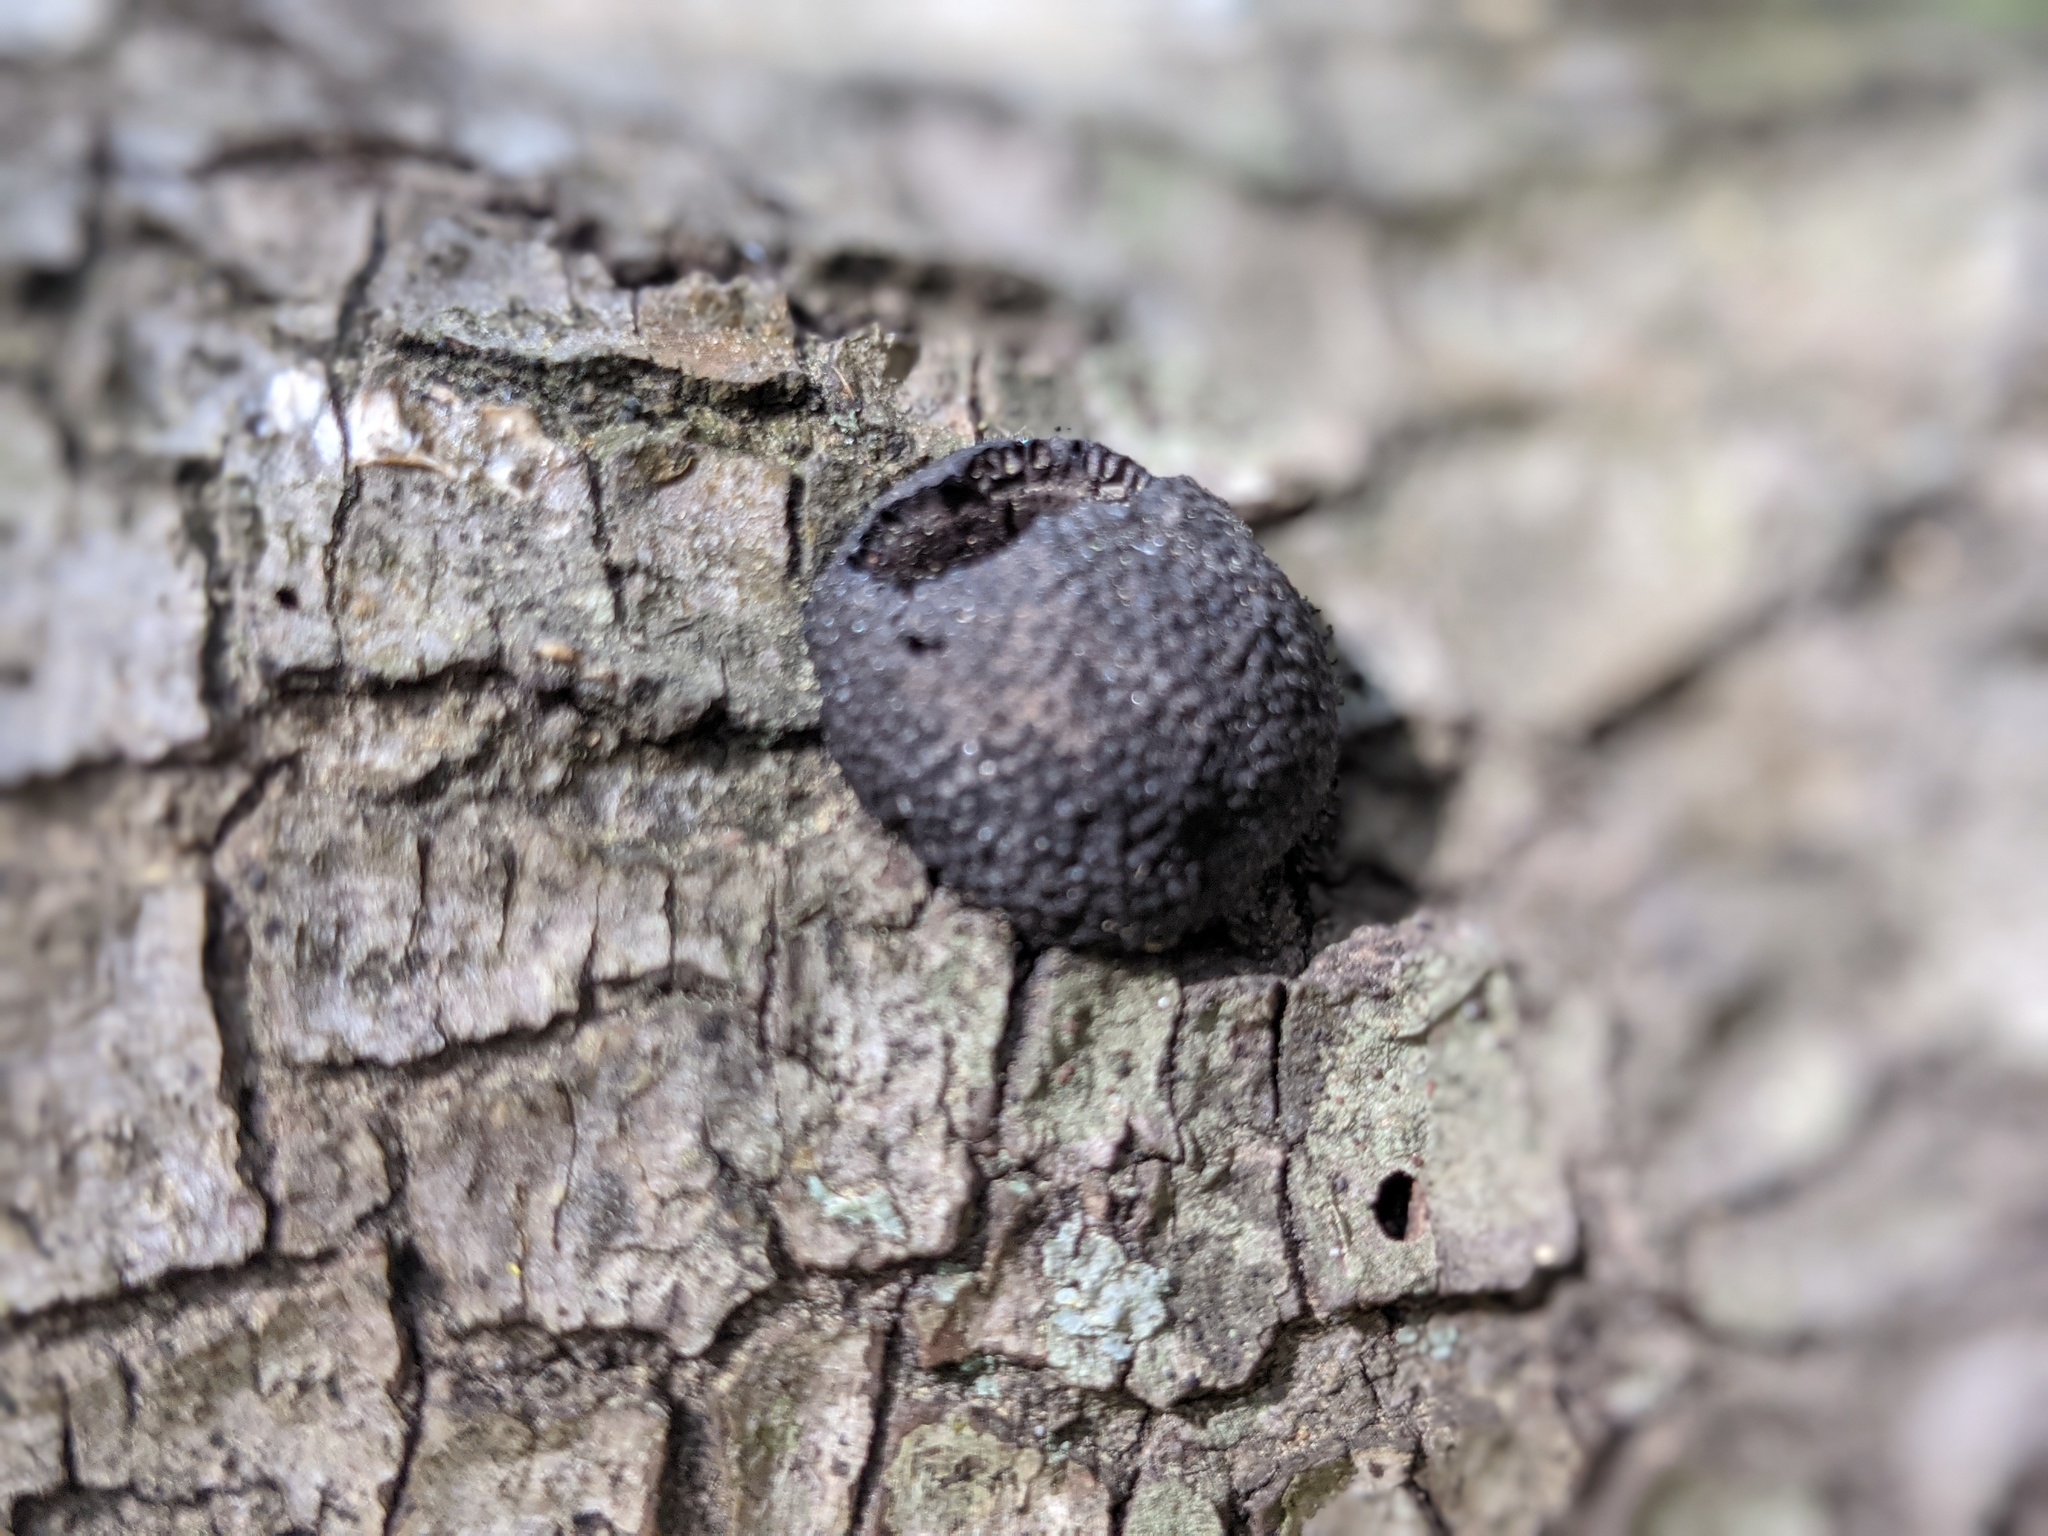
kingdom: Fungi
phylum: Ascomycota
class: Sordariomycetes
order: Xylariales
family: Hypoxylaceae
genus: Annulohypoxylon
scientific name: Annulohypoxylon thouarsianum
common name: Cramp balls
